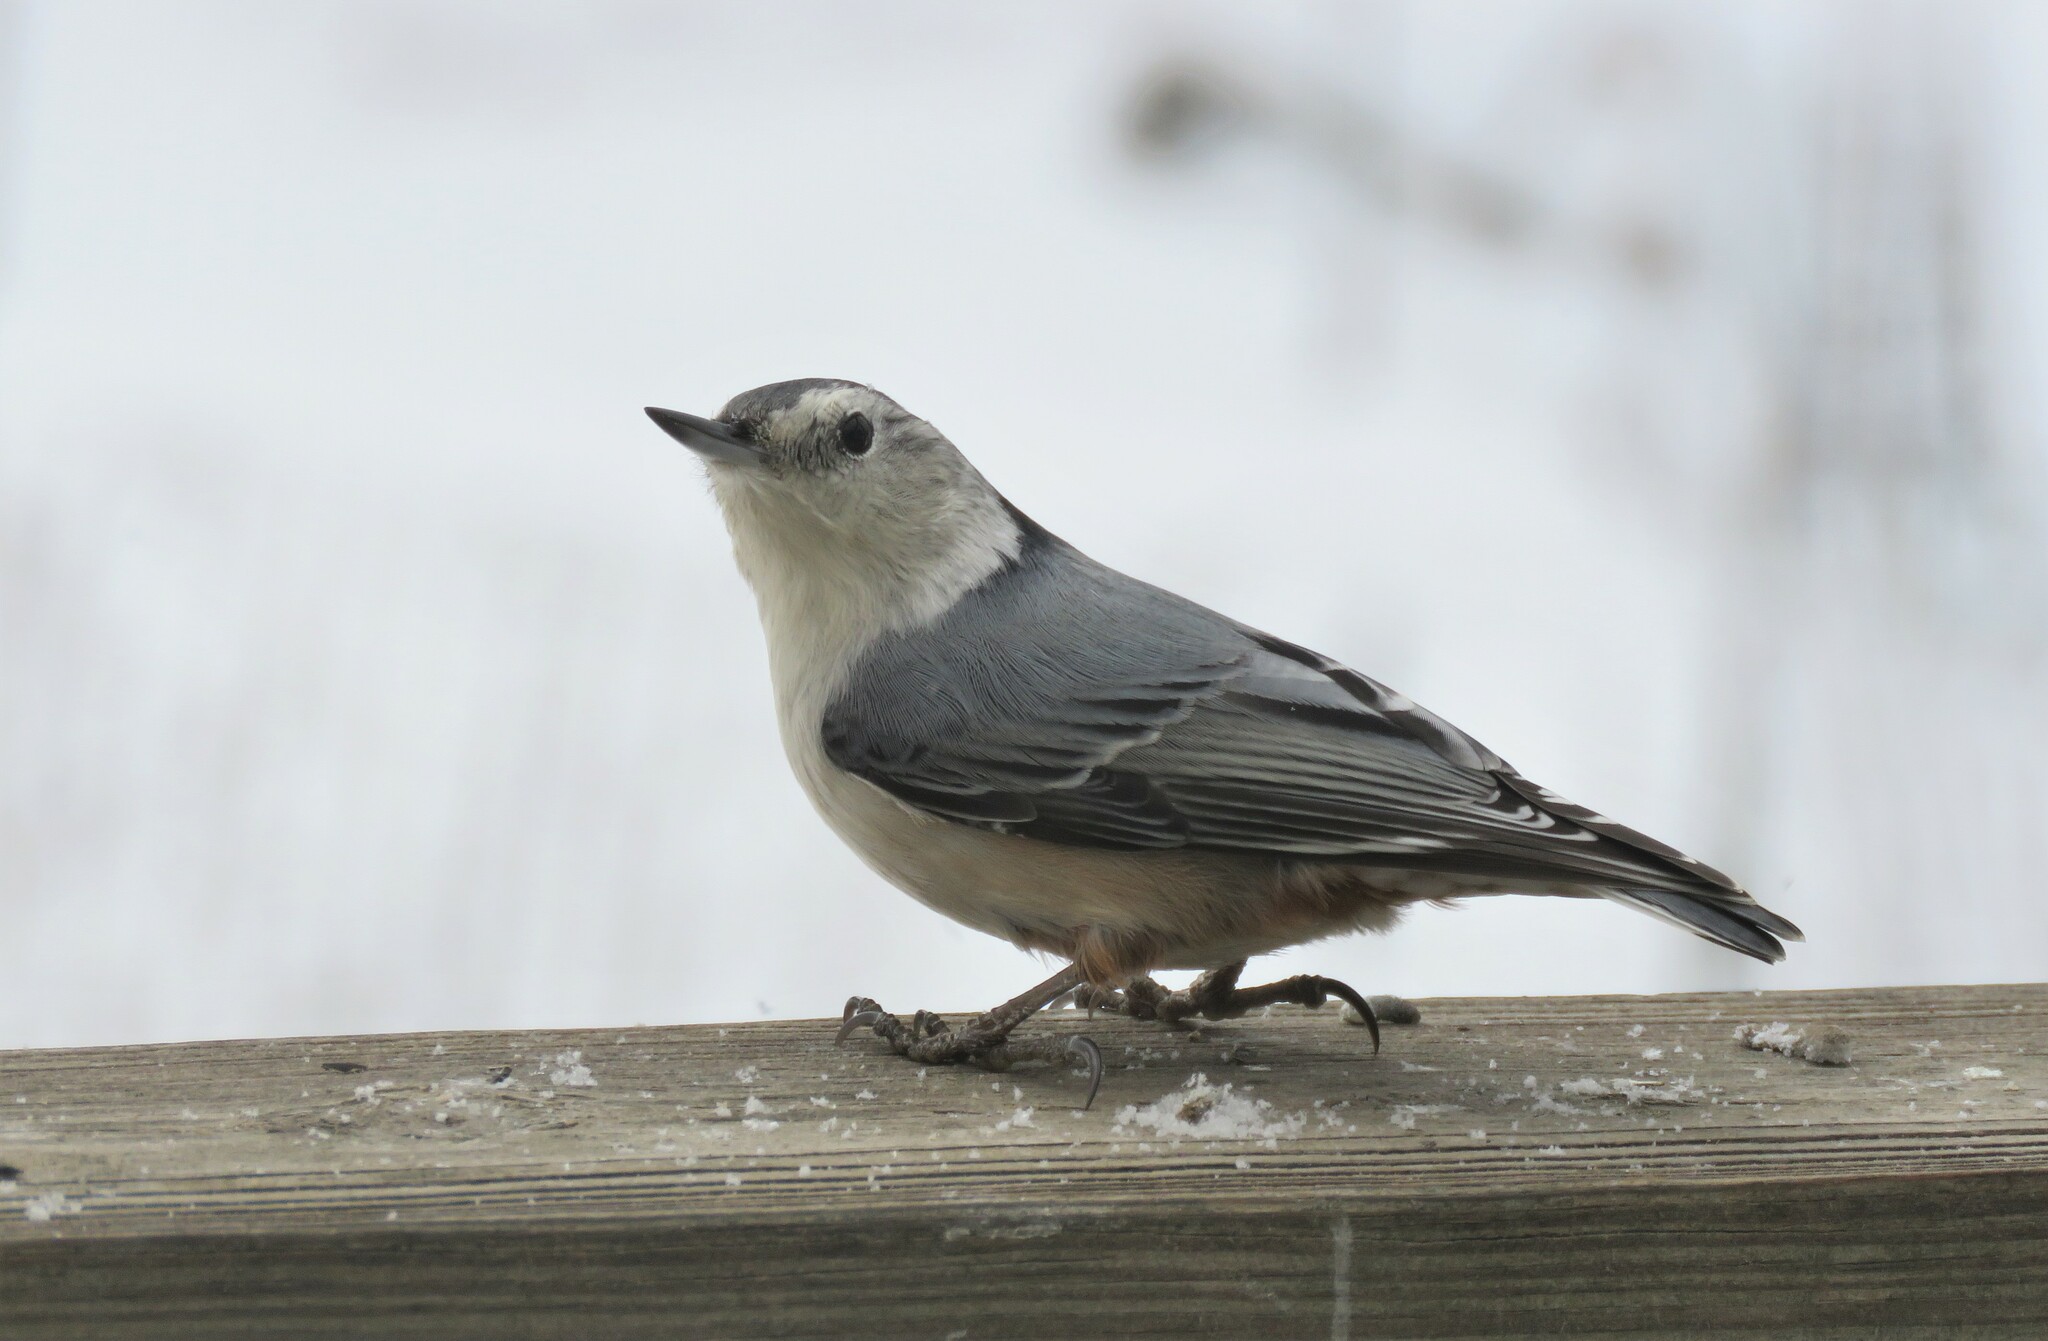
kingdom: Animalia
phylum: Chordata
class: Aves
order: Passeriformes
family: Sittidae
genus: Sitta
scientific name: Sitta carolinensis
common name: White-breasted nuthatch
